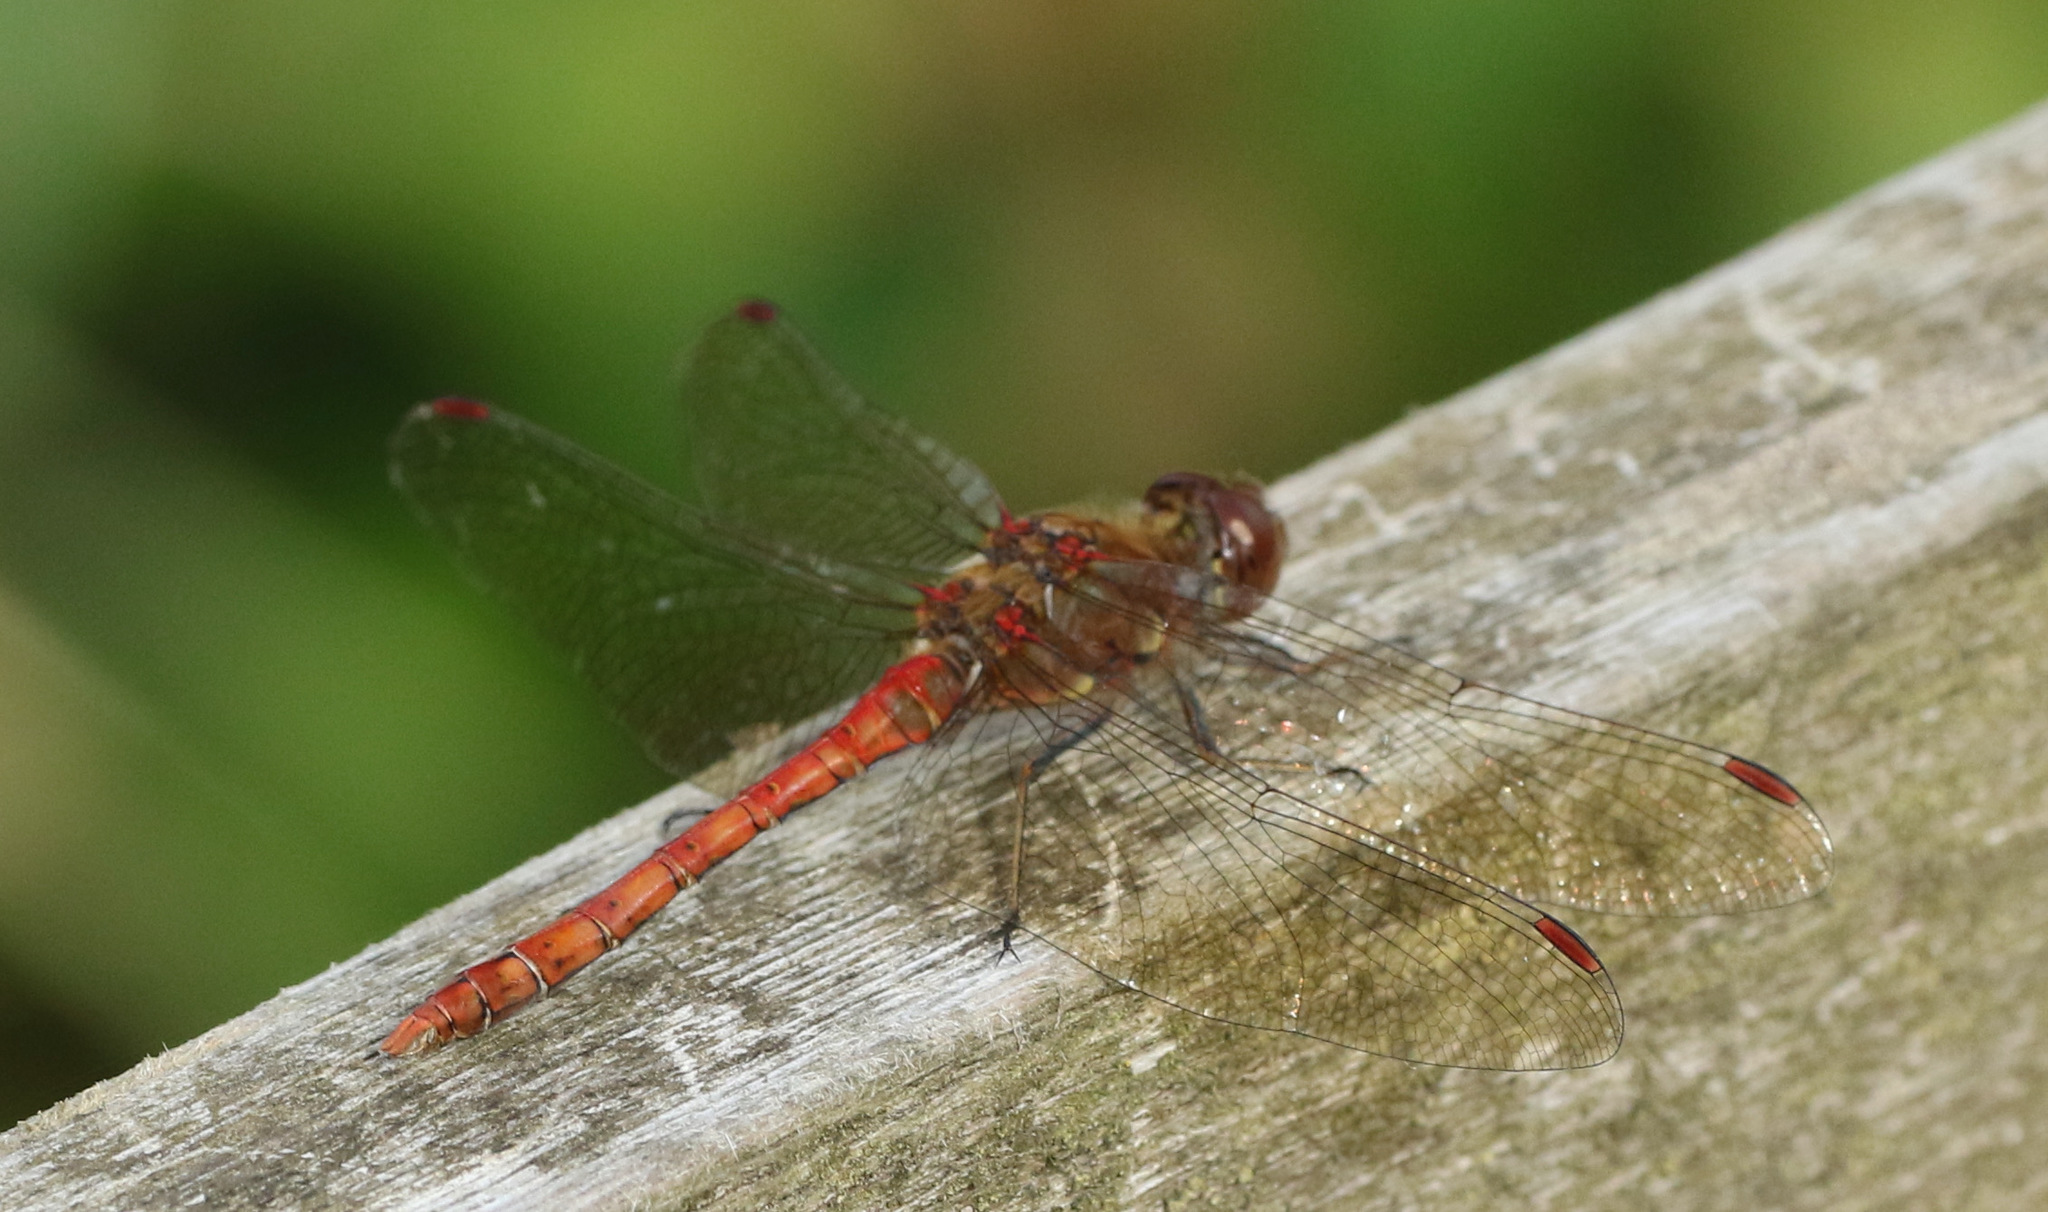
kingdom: Animalia
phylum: Arthropoda
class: Insecta
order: Odonata
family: Libellulidae
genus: Sympetrum
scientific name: Sympetrum striolatum
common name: Common darter
